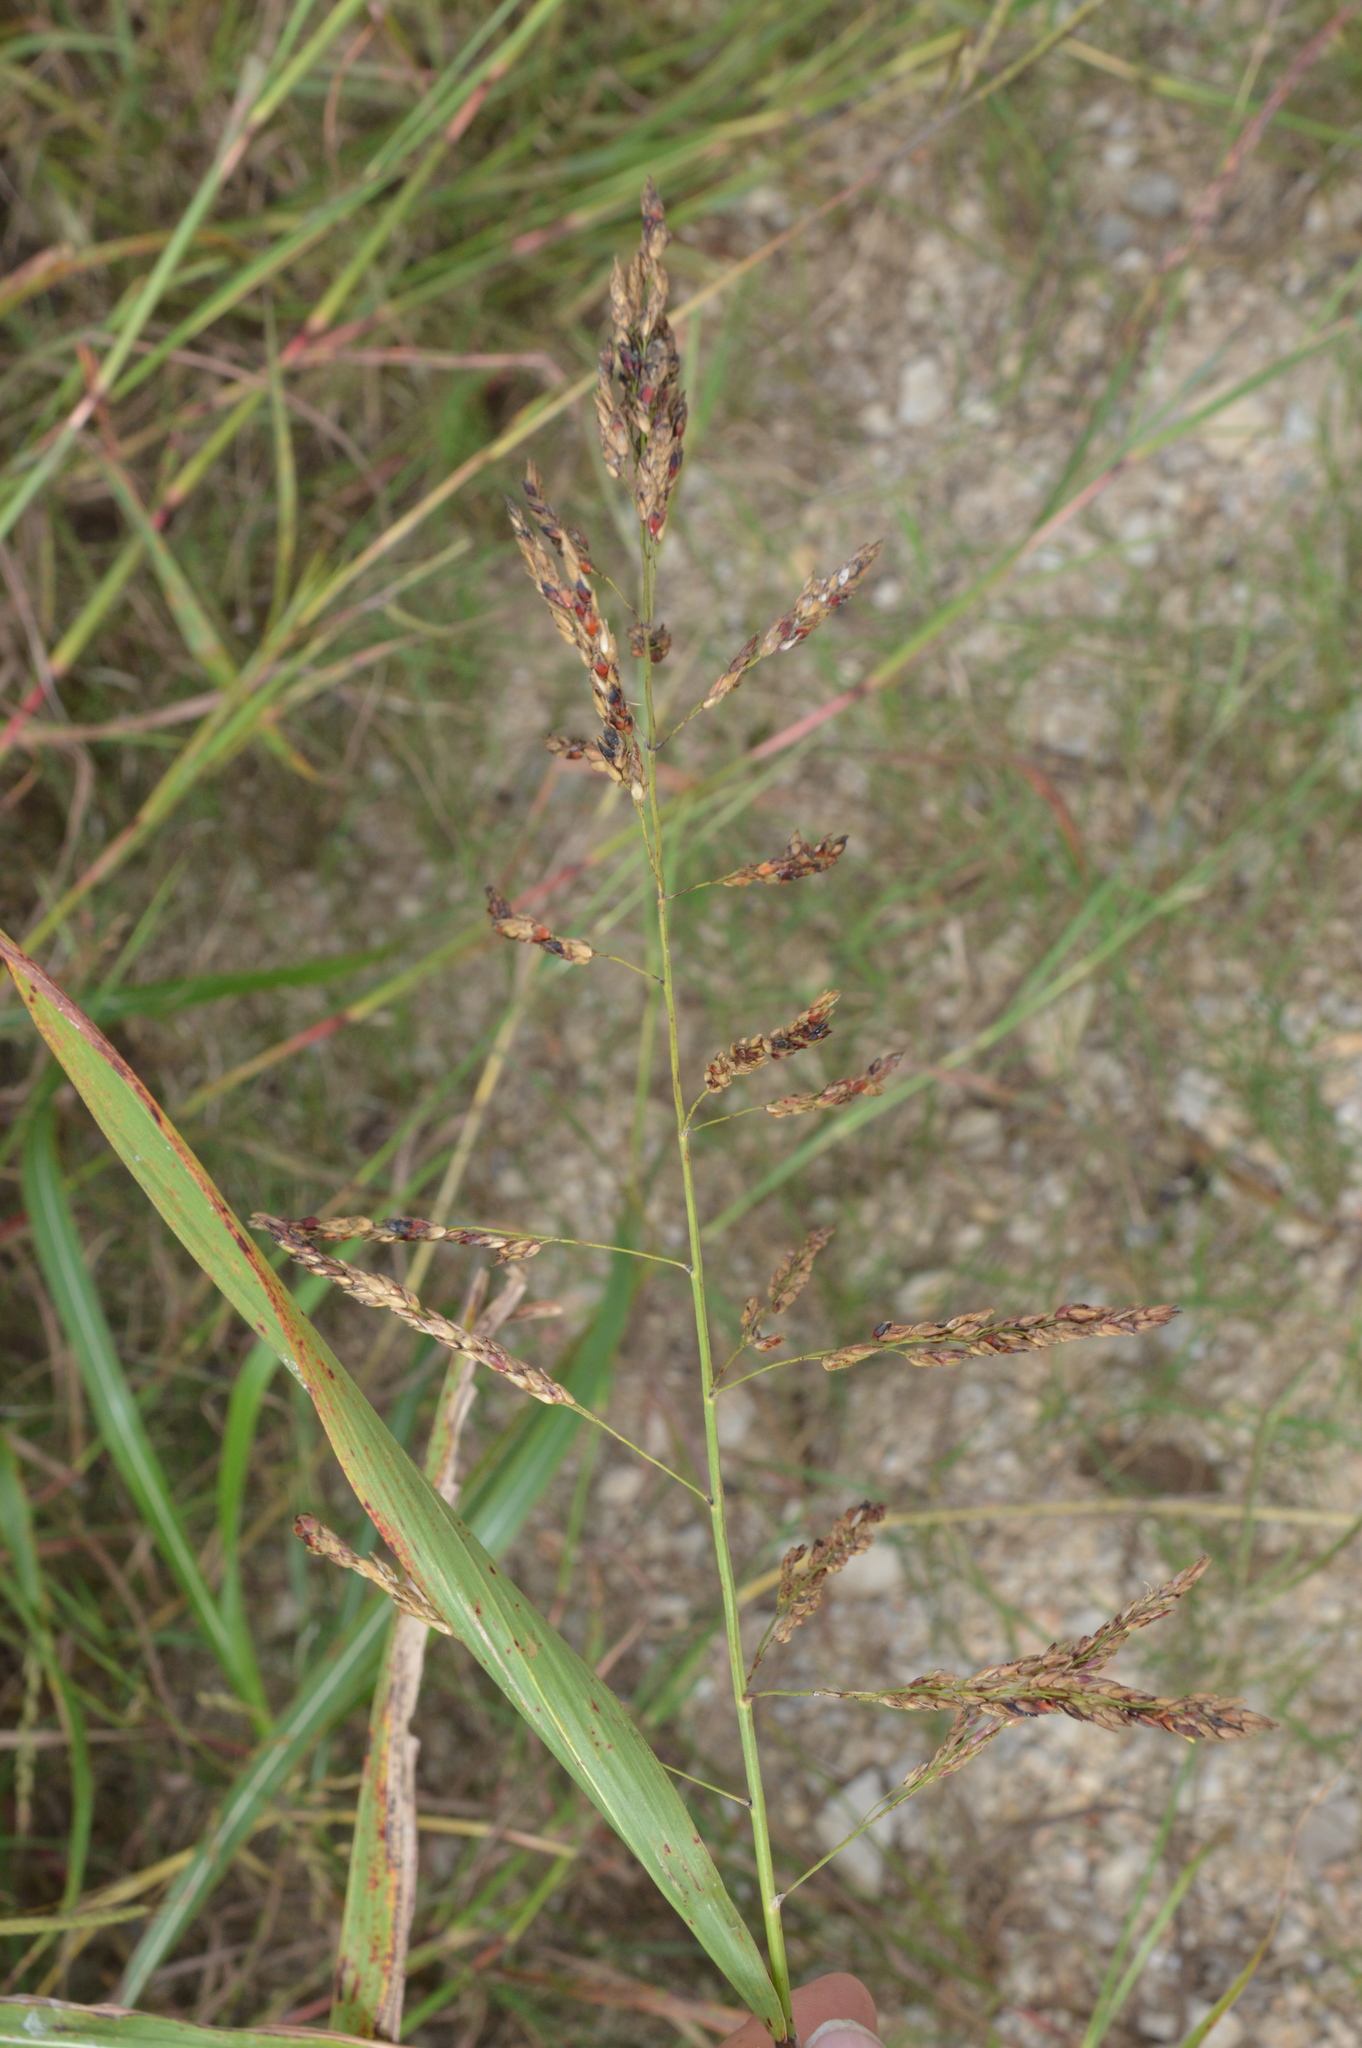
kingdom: Plantae
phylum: Tracheophyta
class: Liliopsida
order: Poales
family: Poaceae
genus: Sorghum
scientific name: Sorghum halepense
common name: Johnson-grass
